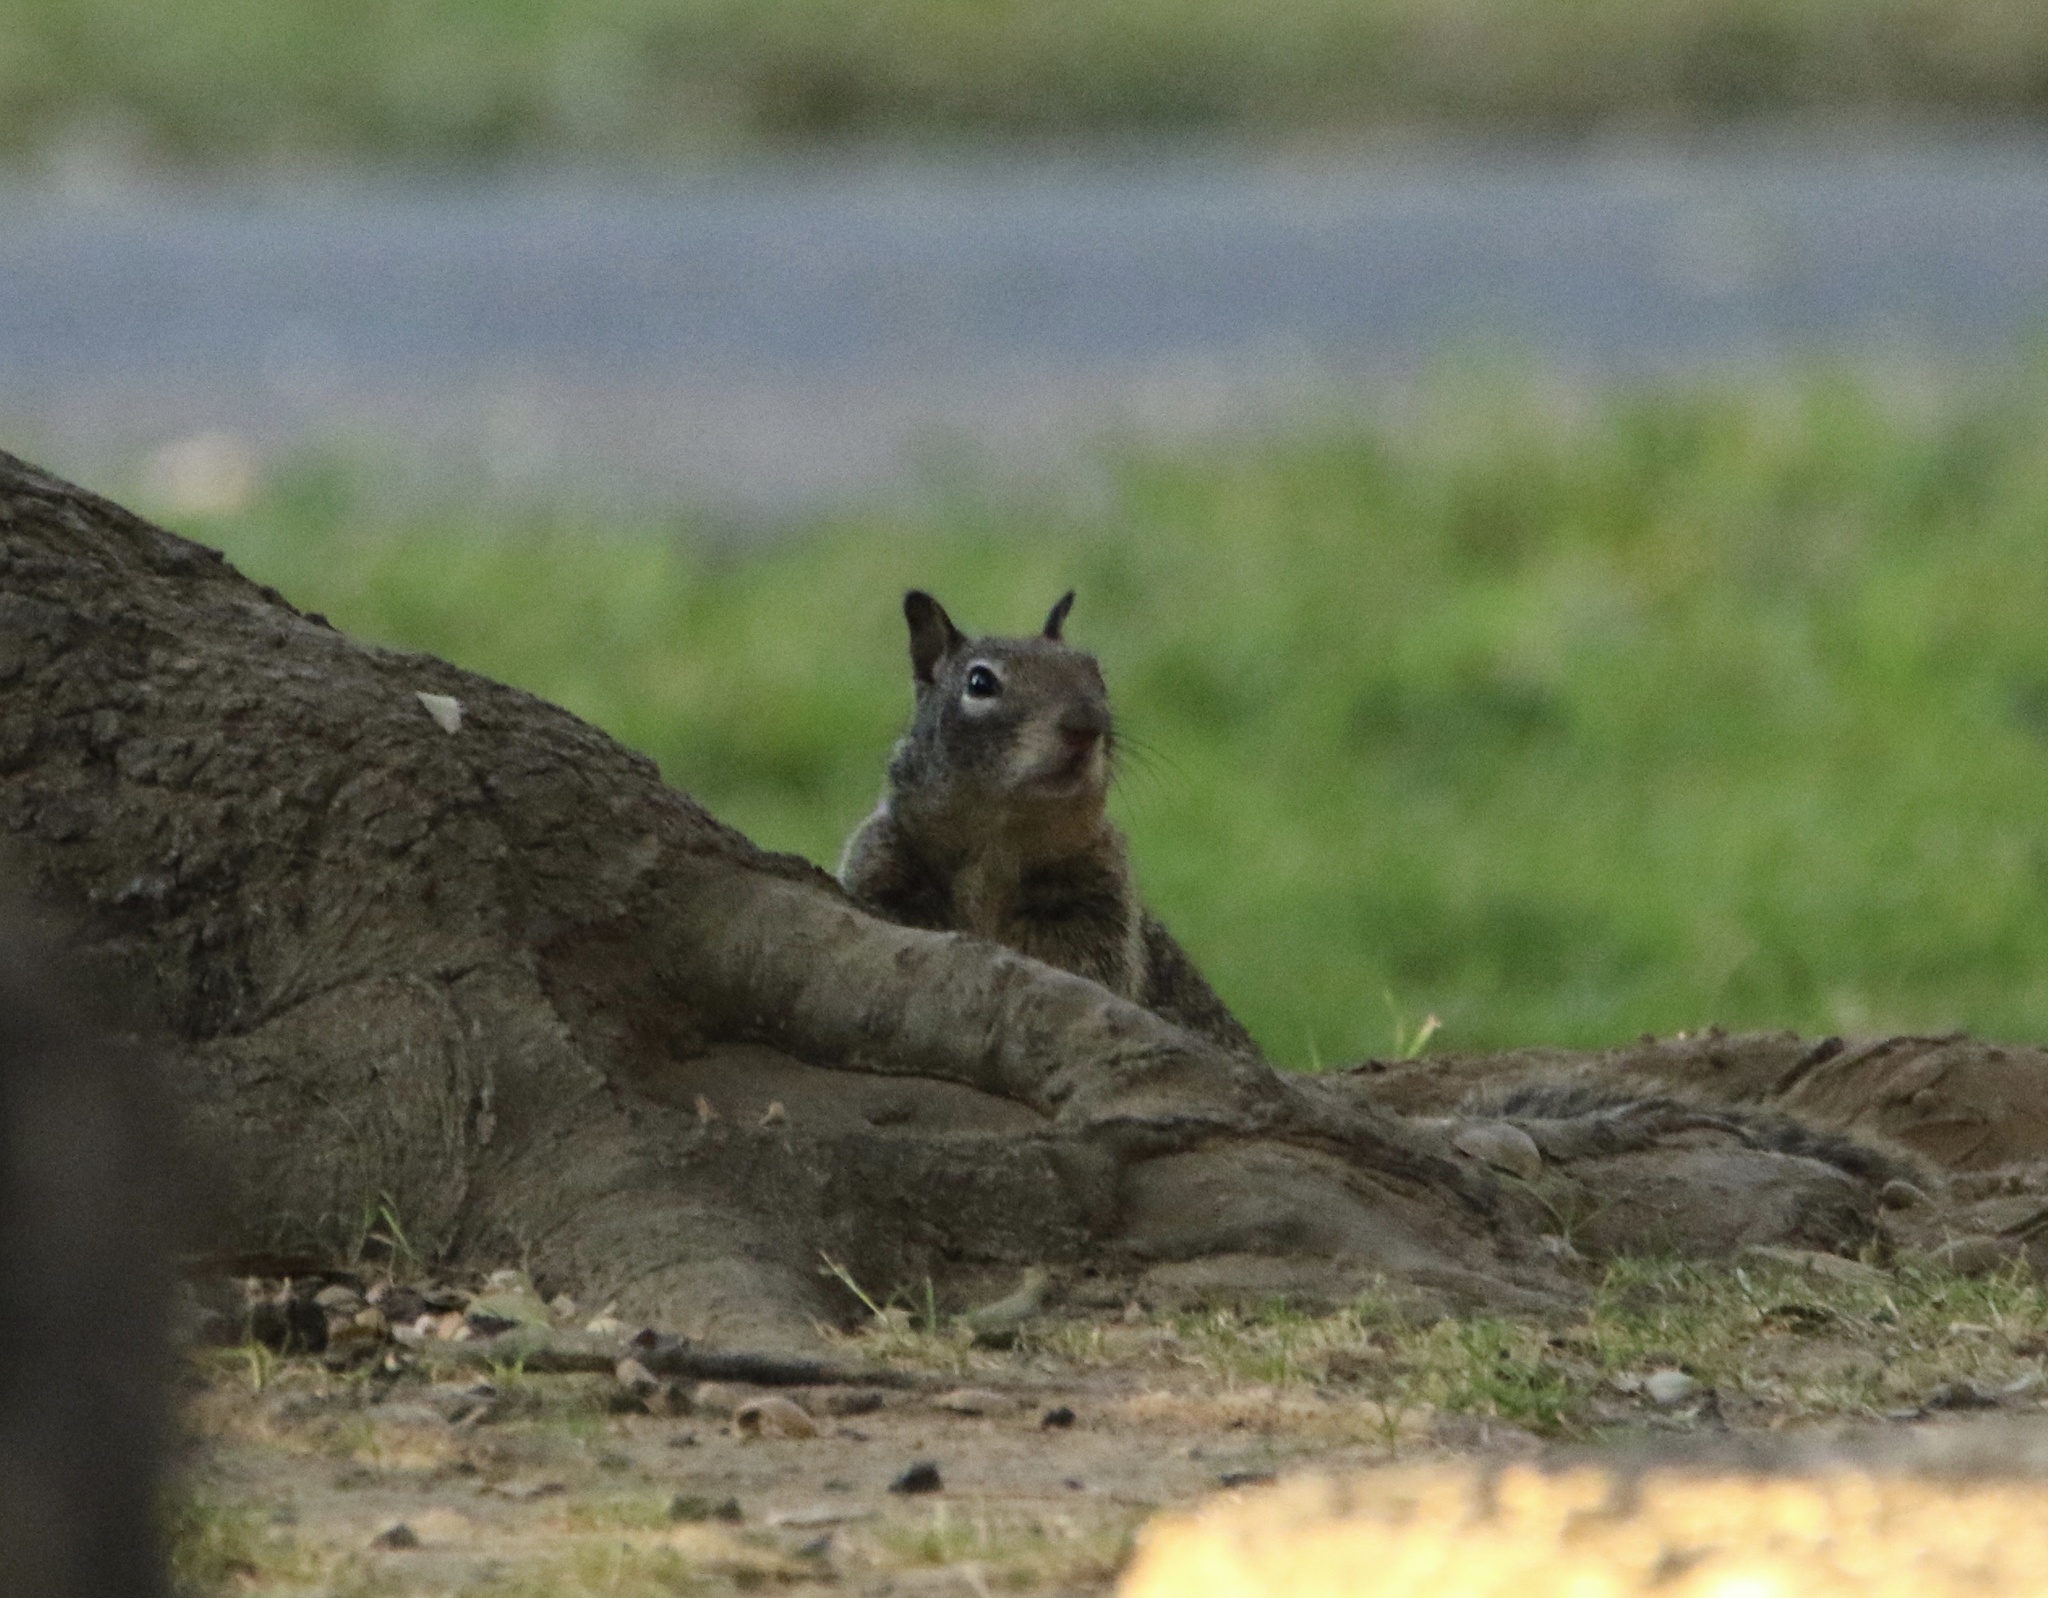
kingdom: Animalia
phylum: Chordata
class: Mammalia
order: Rodentia
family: Sciuridae
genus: Otospermophilus
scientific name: Otospermophilus beecheyi
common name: California ground squirrel
